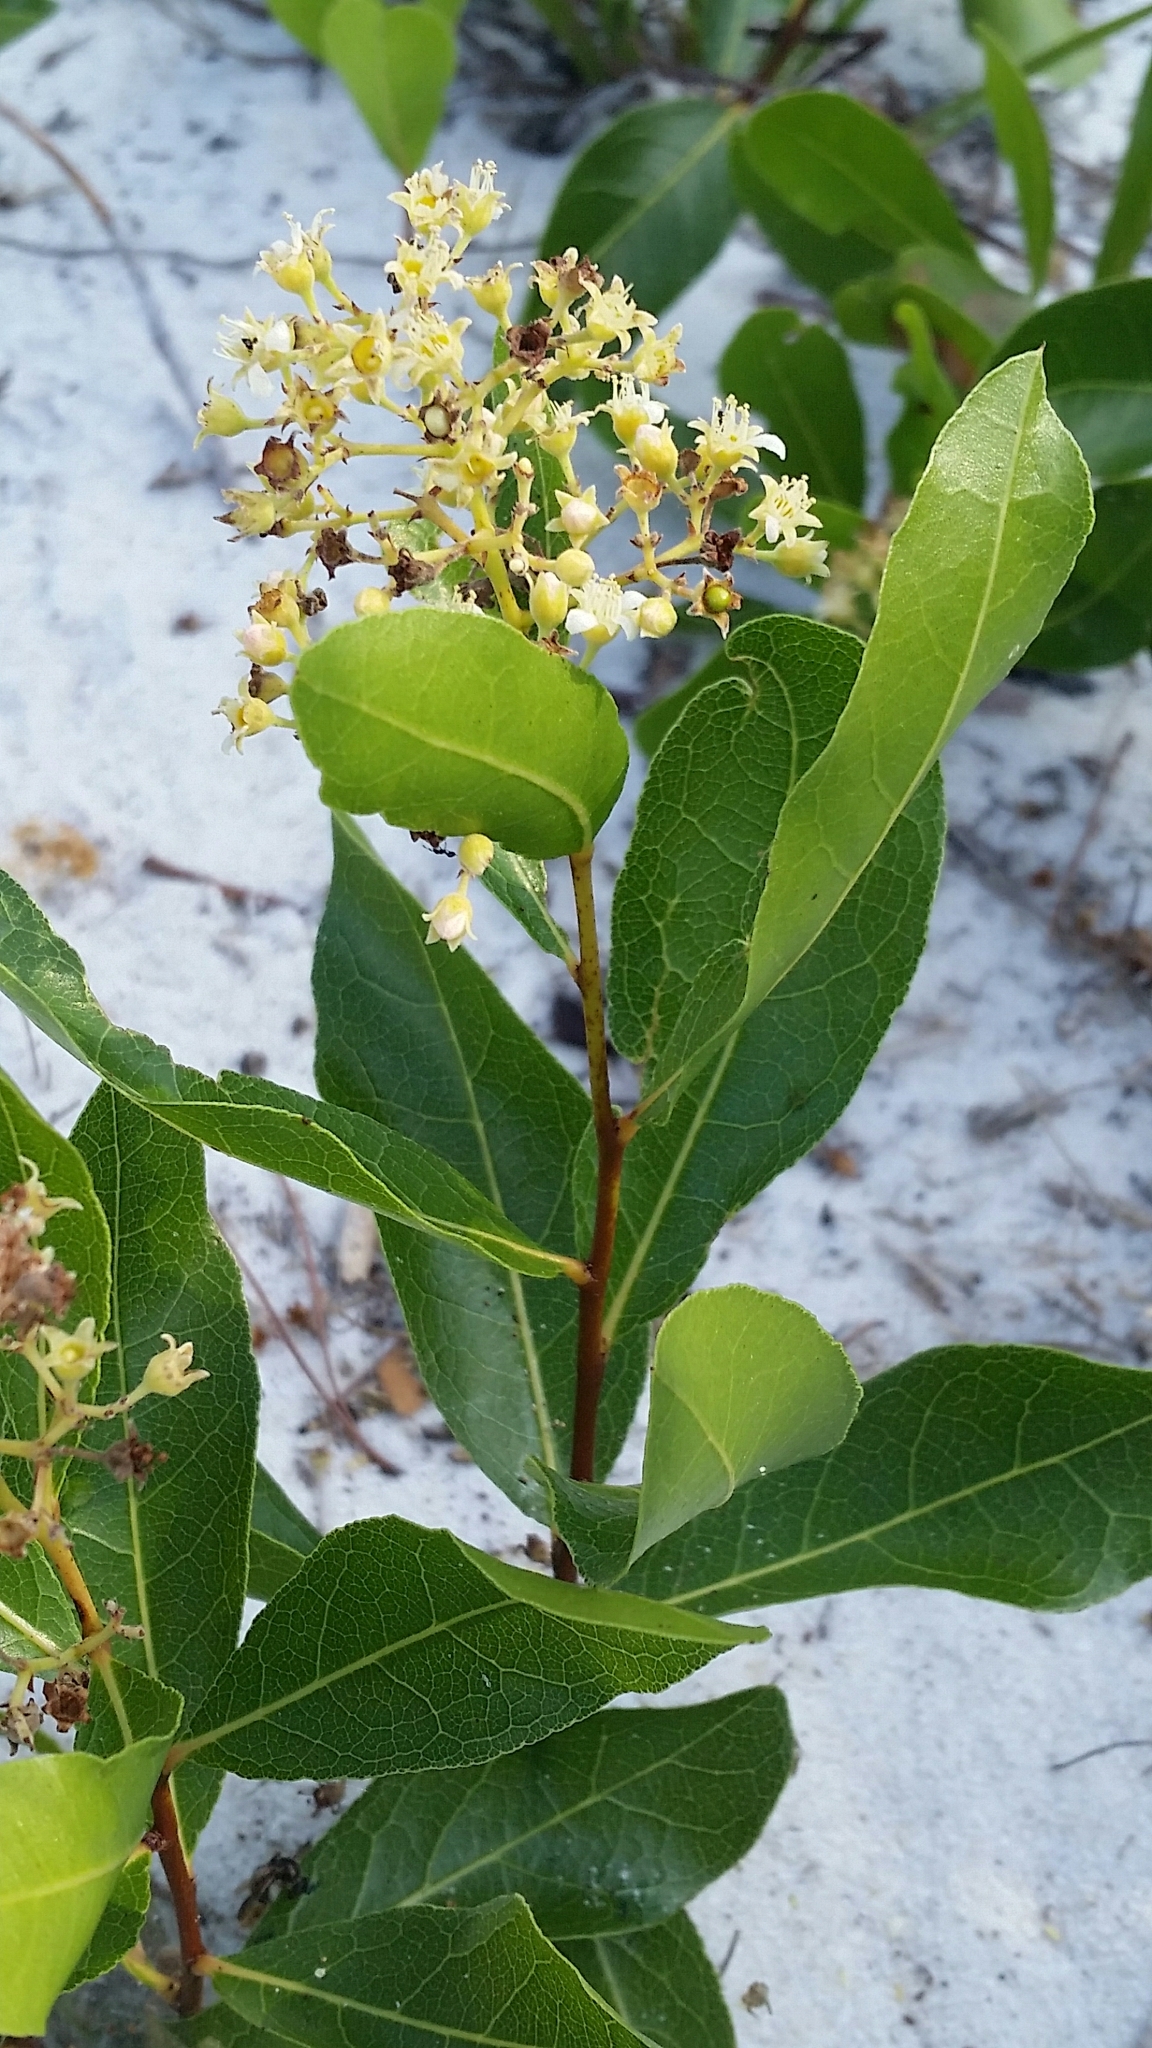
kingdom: Plantae
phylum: Tracheophyta
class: Magnoliopsida
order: Malpighiales
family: Chrysobalanaceae
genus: Geobalanus
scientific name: Geobalanus oblongifolius
